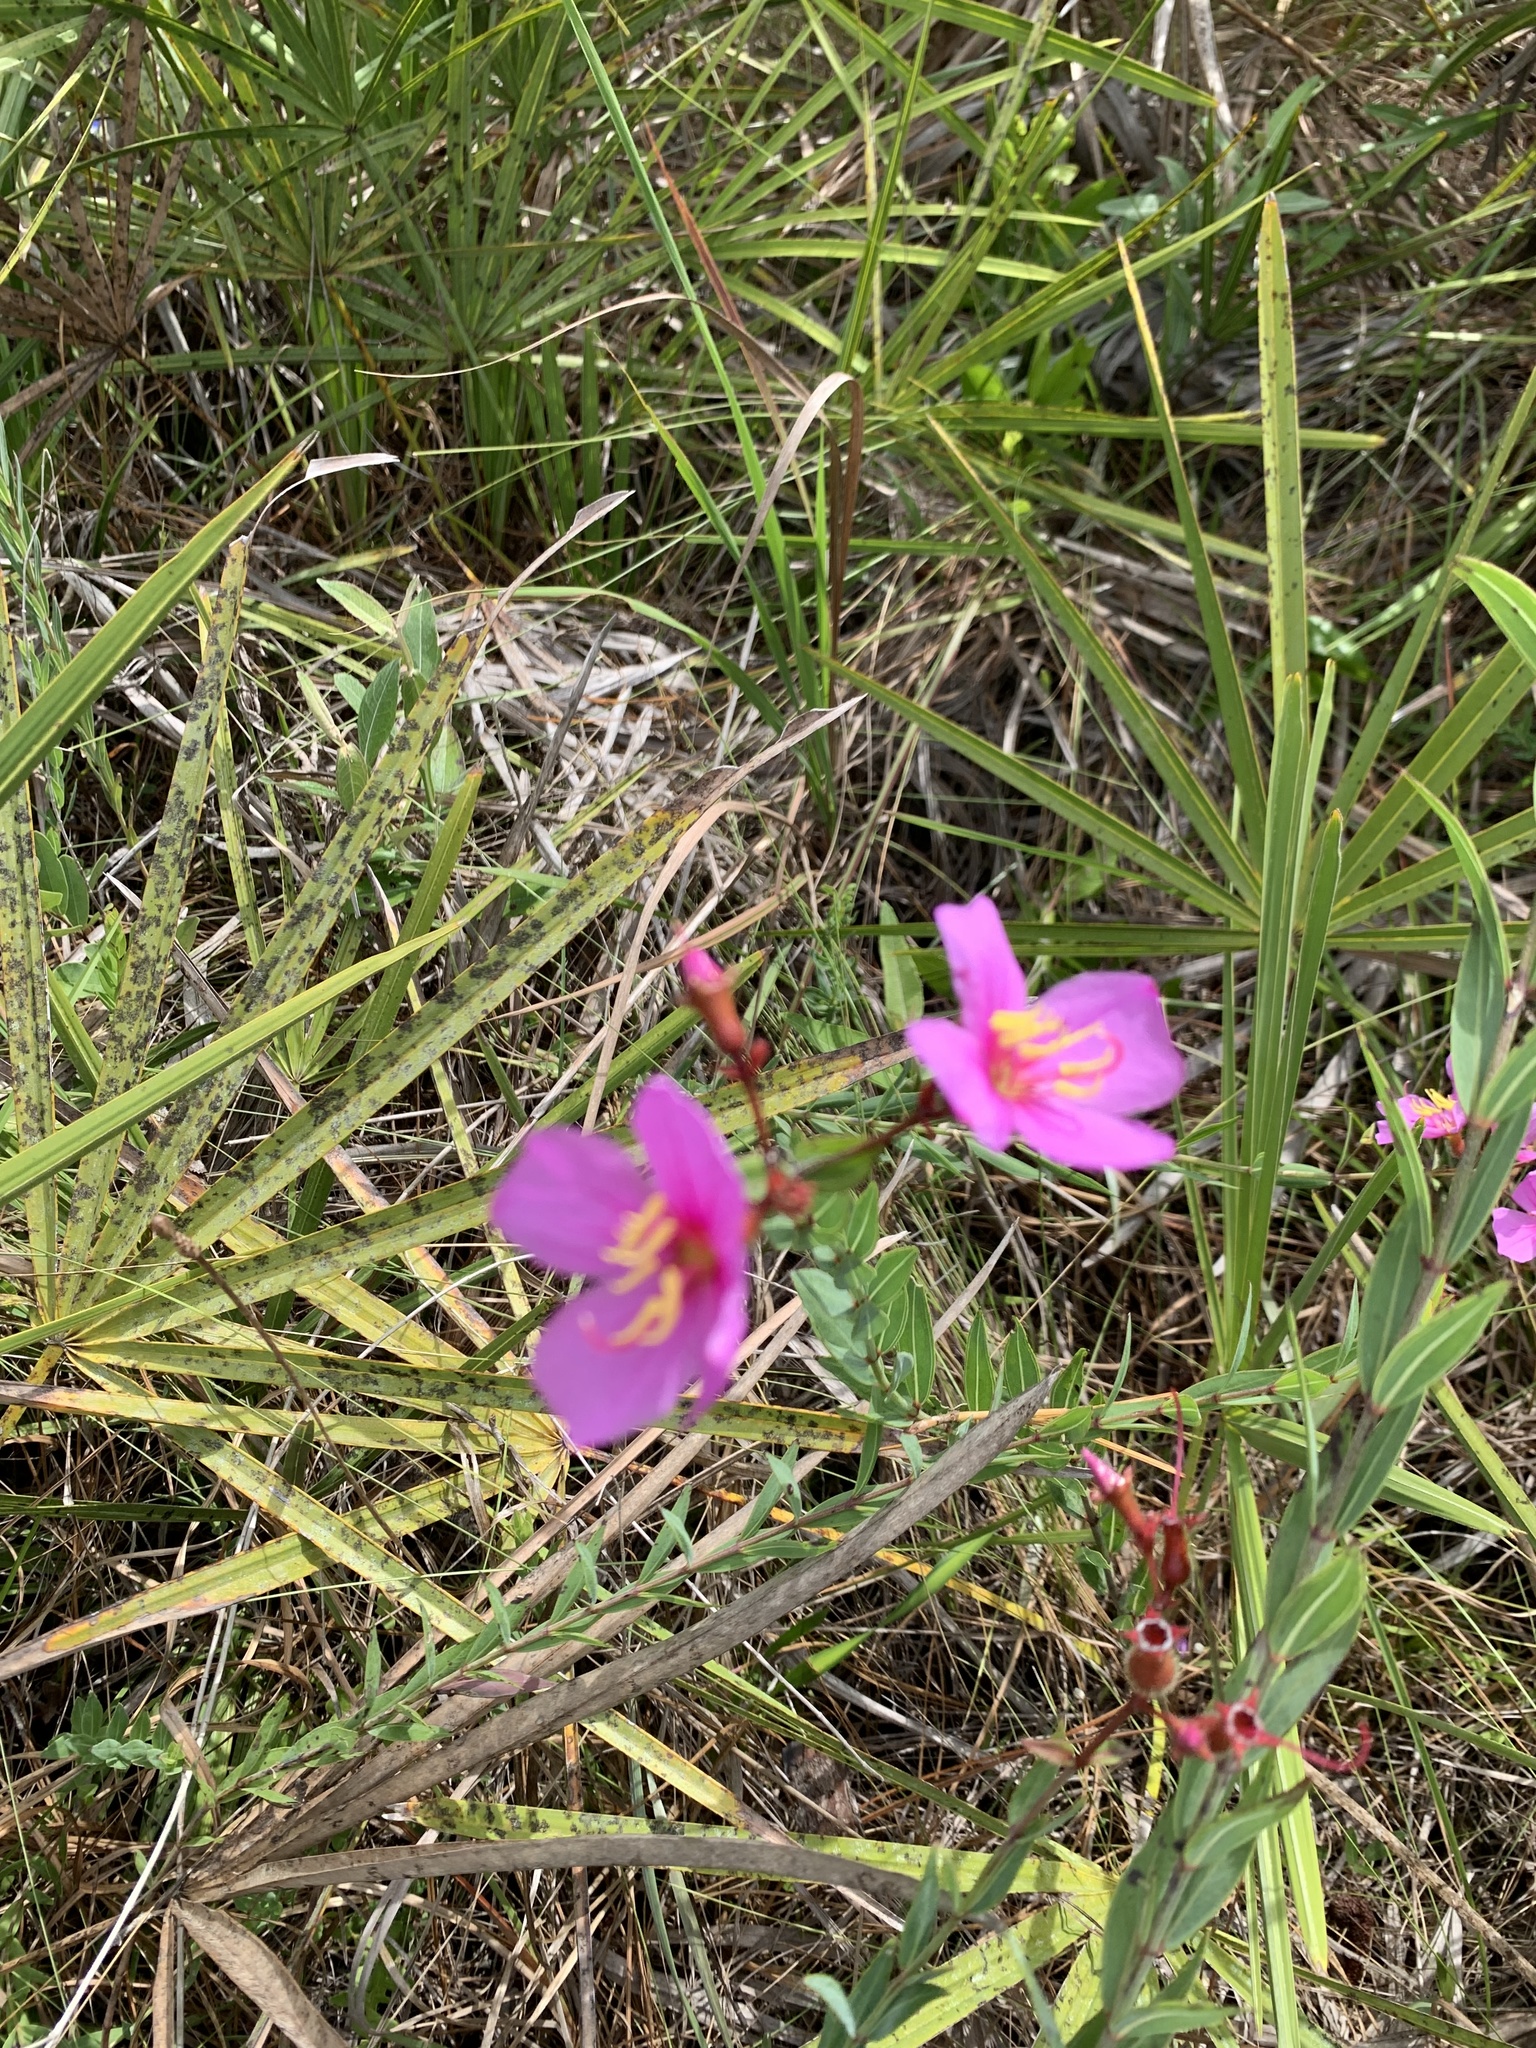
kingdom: Plantae
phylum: Tracheophyta
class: Magnoliopsida
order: Myrtales
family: Melastomataceae
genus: Rhexia
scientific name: Rhexia alifanus
